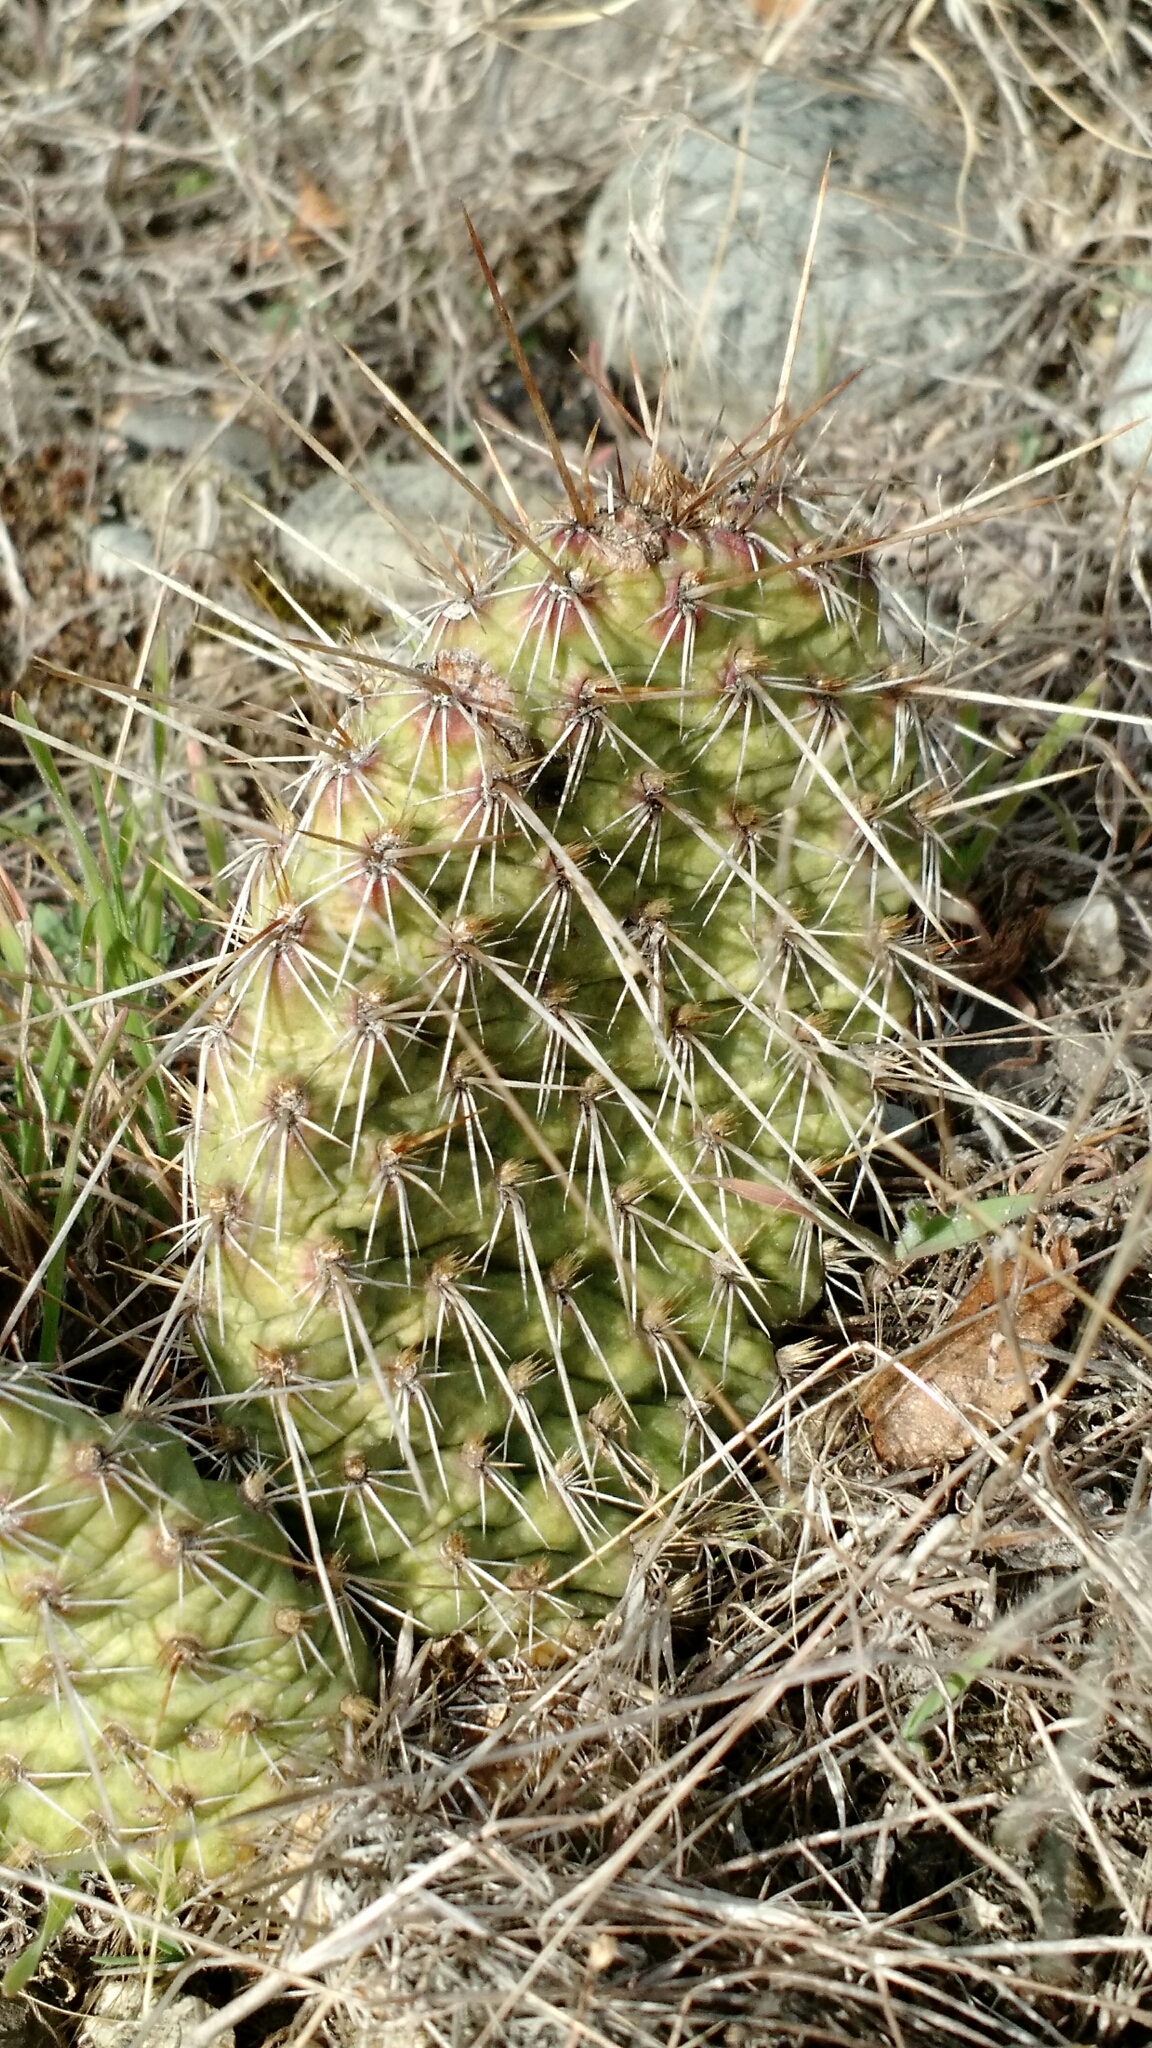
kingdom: Plantae
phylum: Tracheophyta
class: Magnoliopsida
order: Caryophyllales
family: Cactaceae
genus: Opuntia
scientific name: Opuntia polyacantha
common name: Plains prickly-pear
